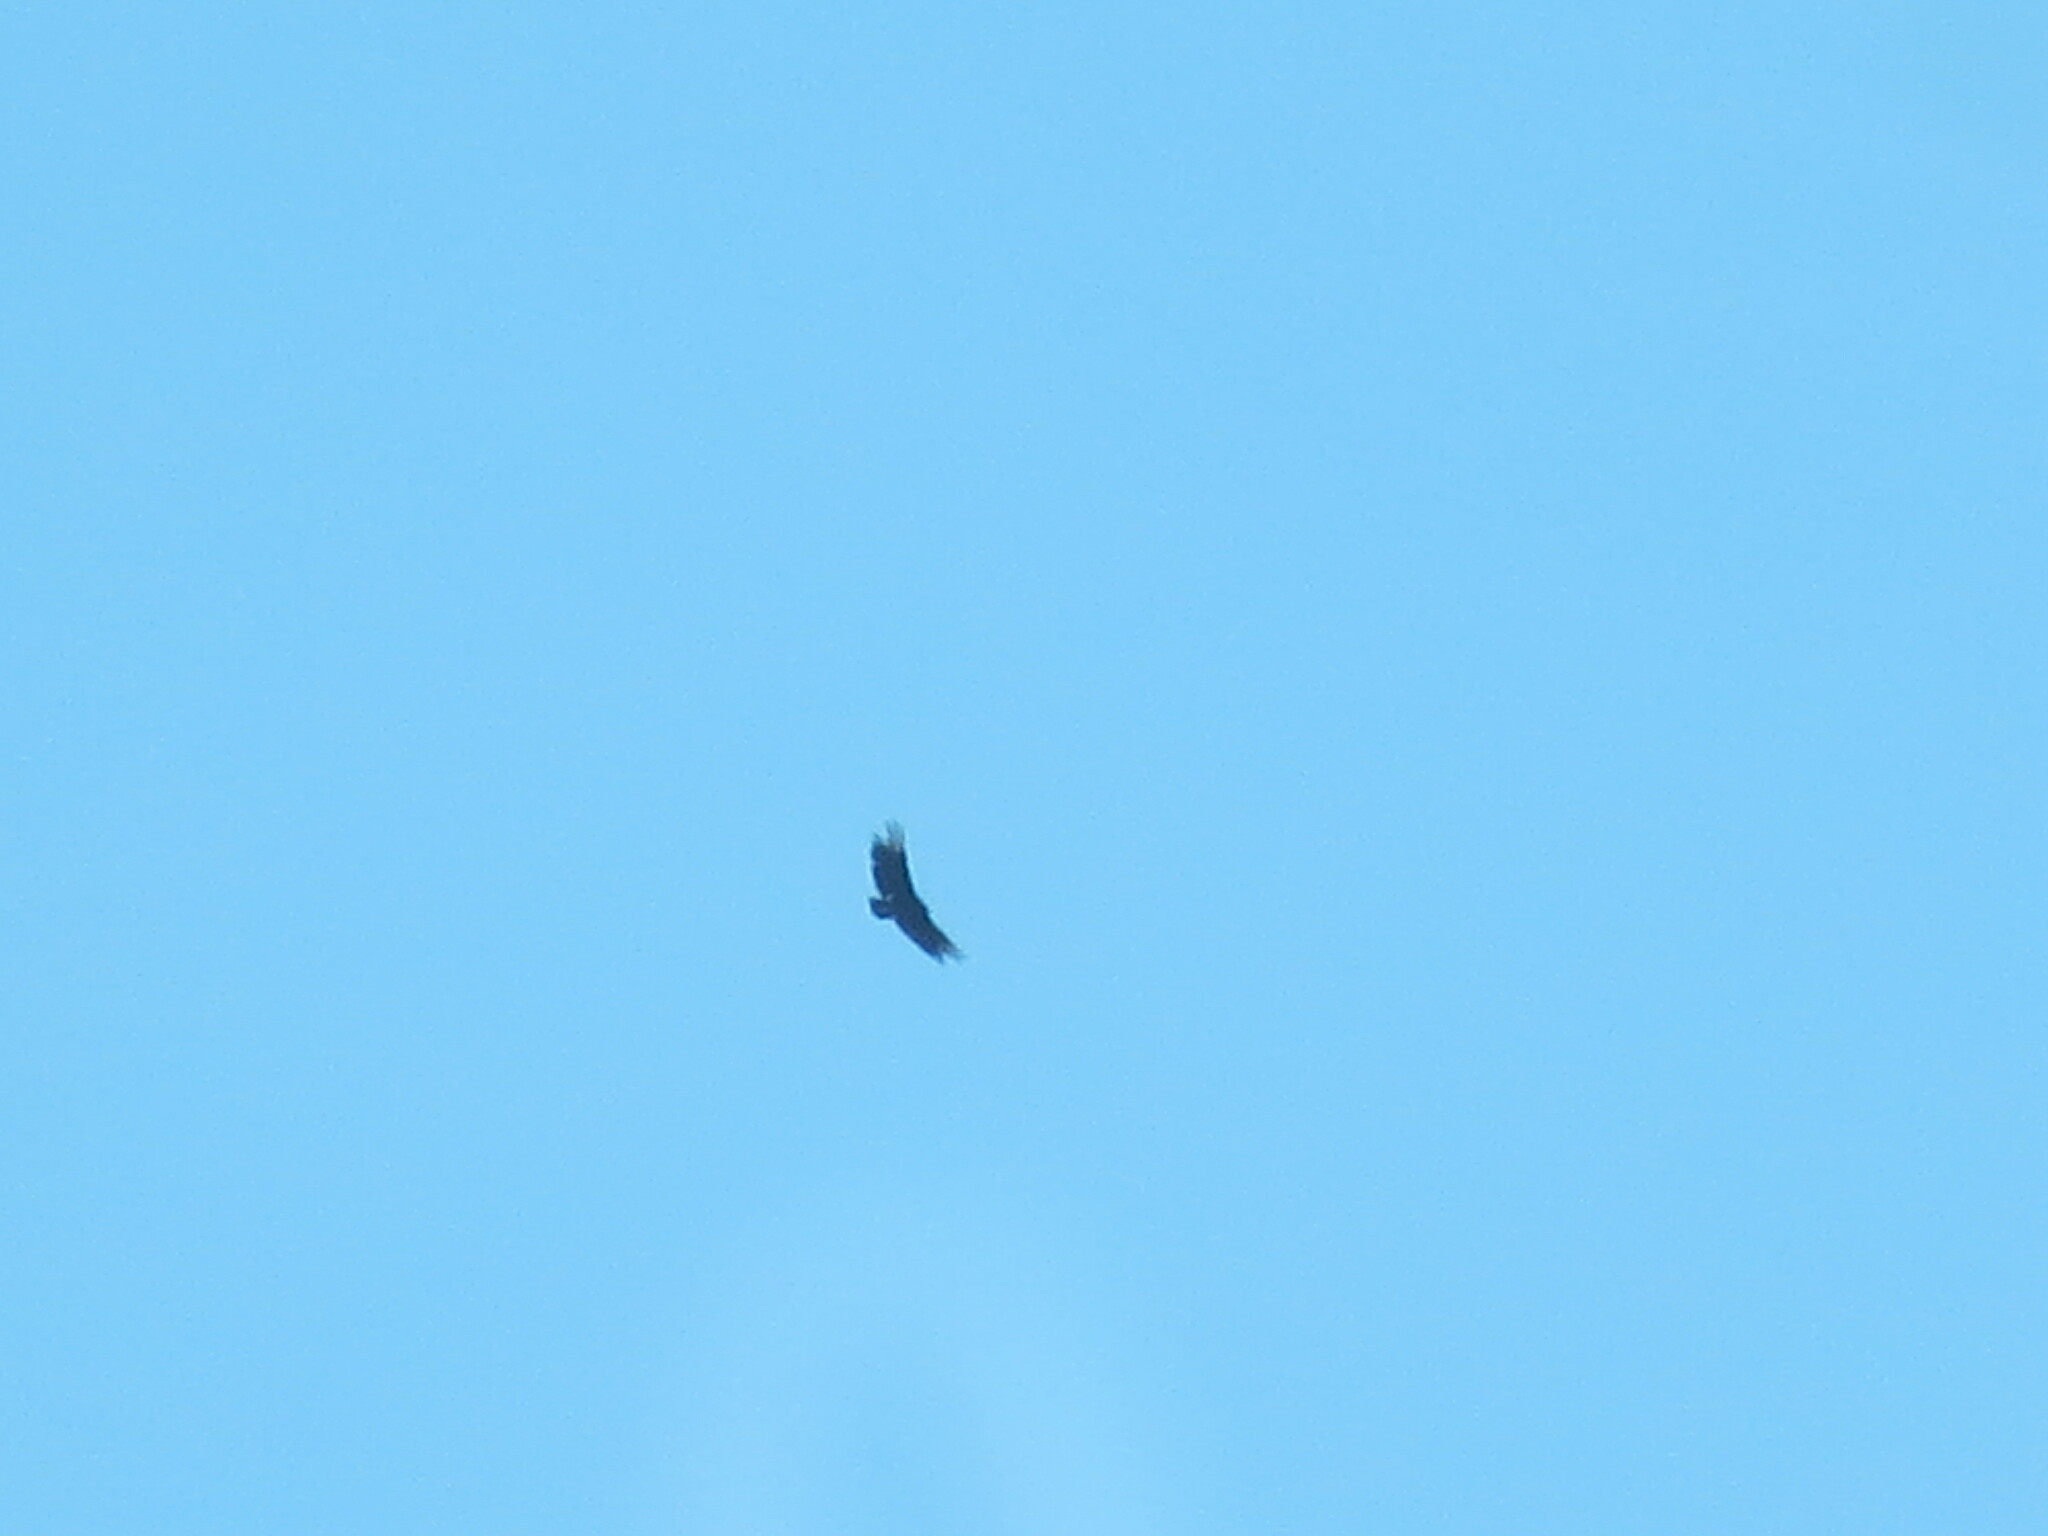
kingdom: Animalia
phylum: Chordata
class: Aves
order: Accipitriformes
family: Cathartidae
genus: Coragyps
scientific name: Coragyps atratus
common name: Black vulture
